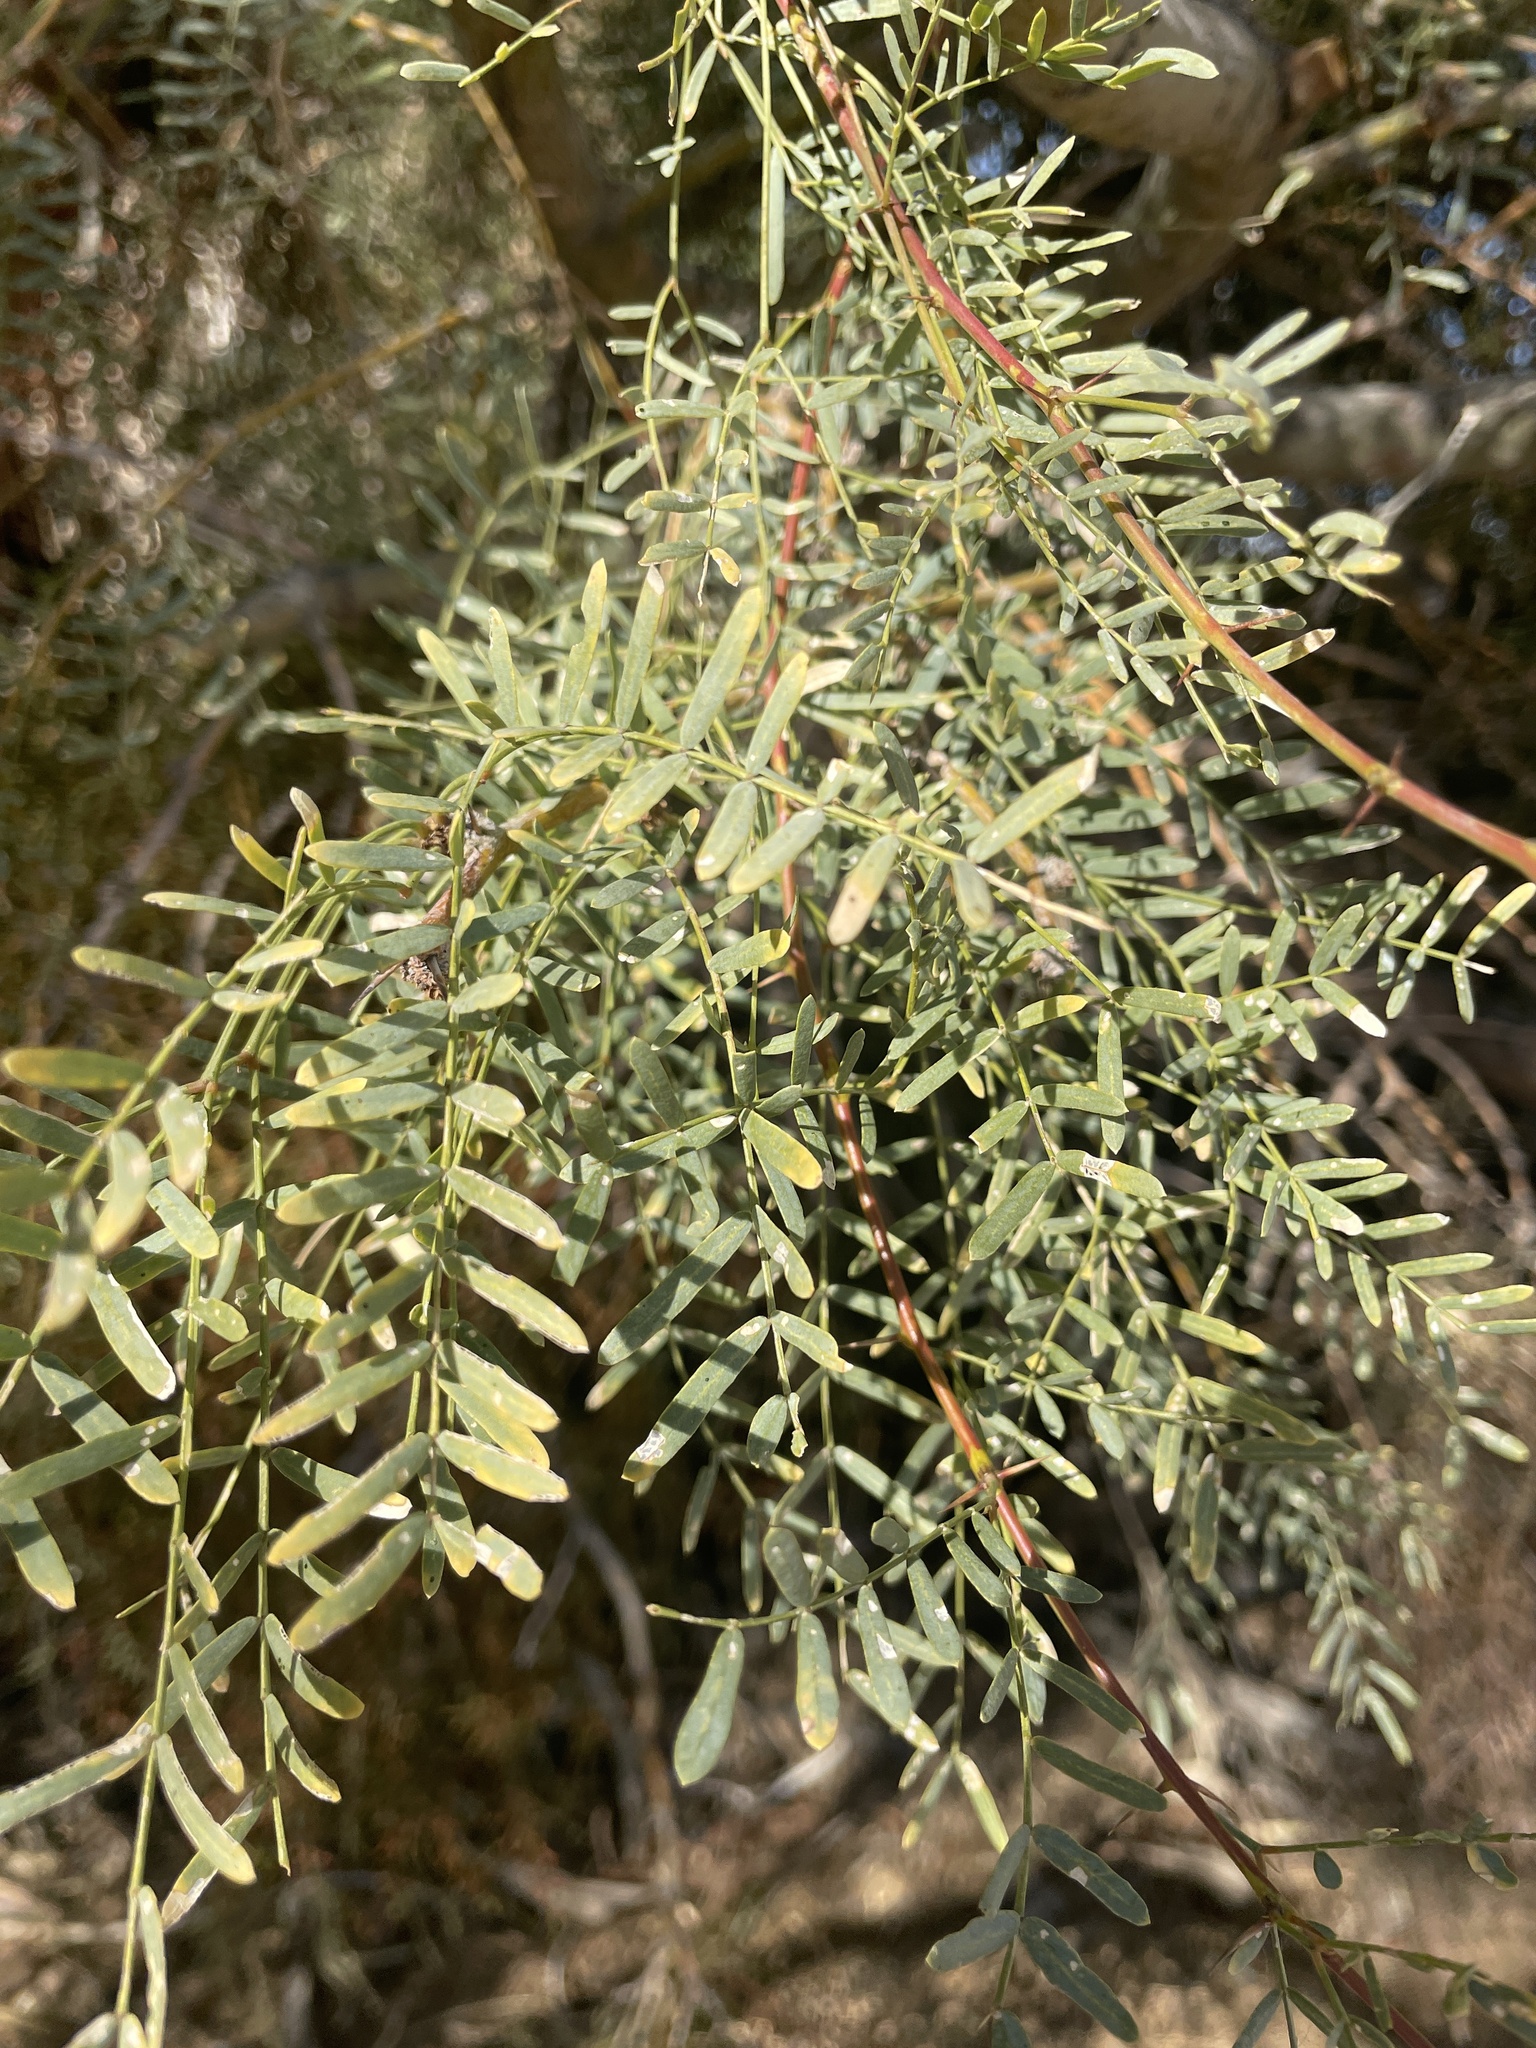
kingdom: Plantae
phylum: Tracheophyta
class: Magnoliopsida
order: Fabales
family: Fabaceae
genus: Prosopis
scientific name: Prosopis pubescens
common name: Screw-bean
